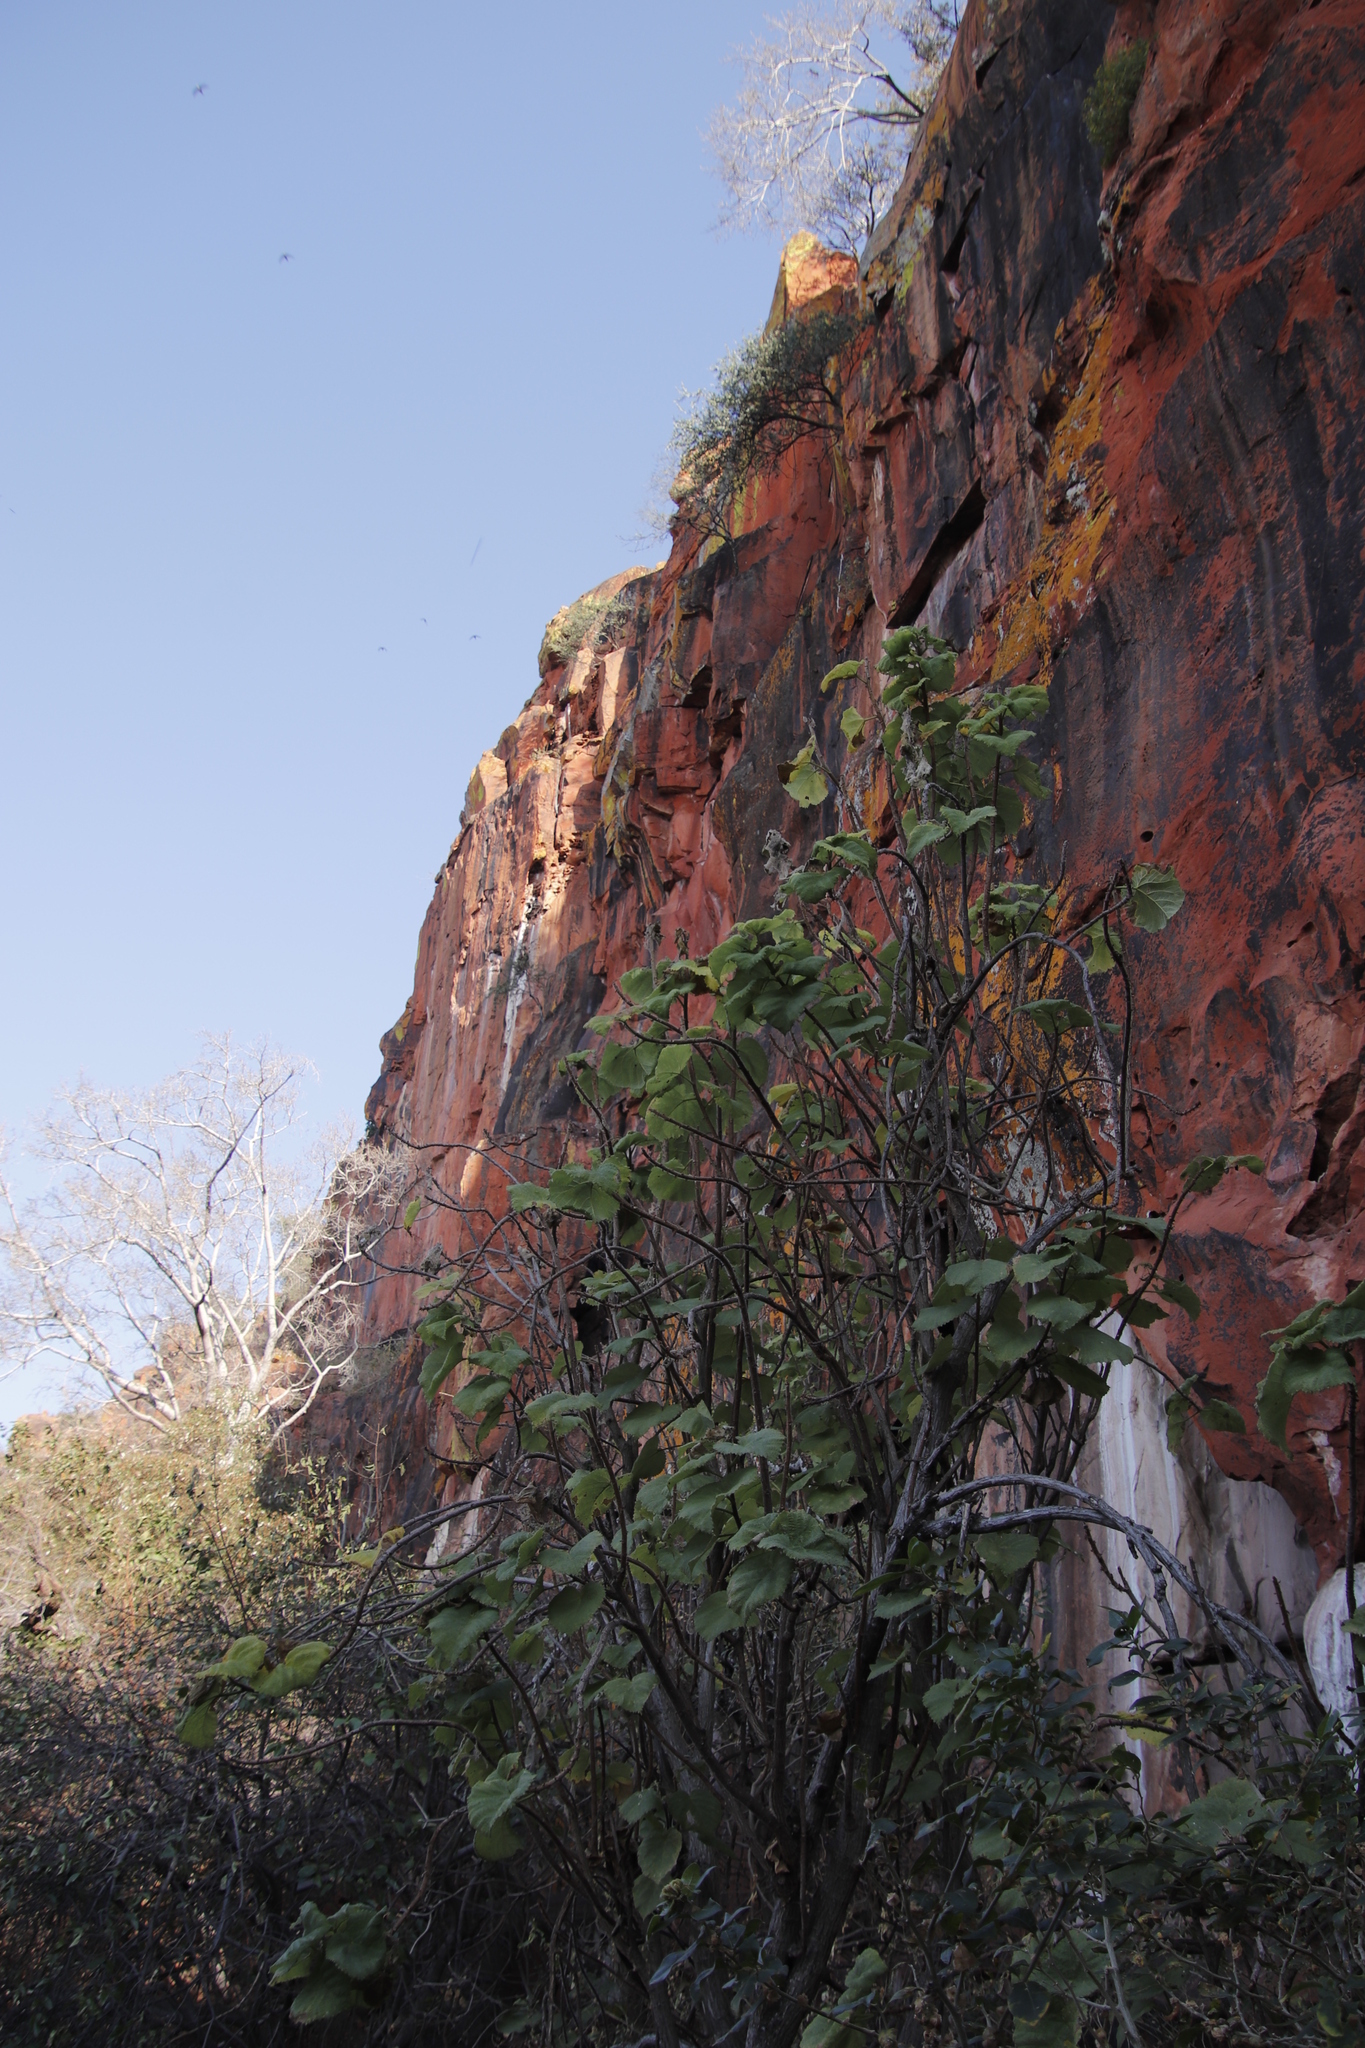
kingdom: Plantae
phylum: Tracheophyta
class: Magnoliopsida
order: Rosales
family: Moraceae
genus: Ficus
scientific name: Ficus sycomorus
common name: Sycomore
